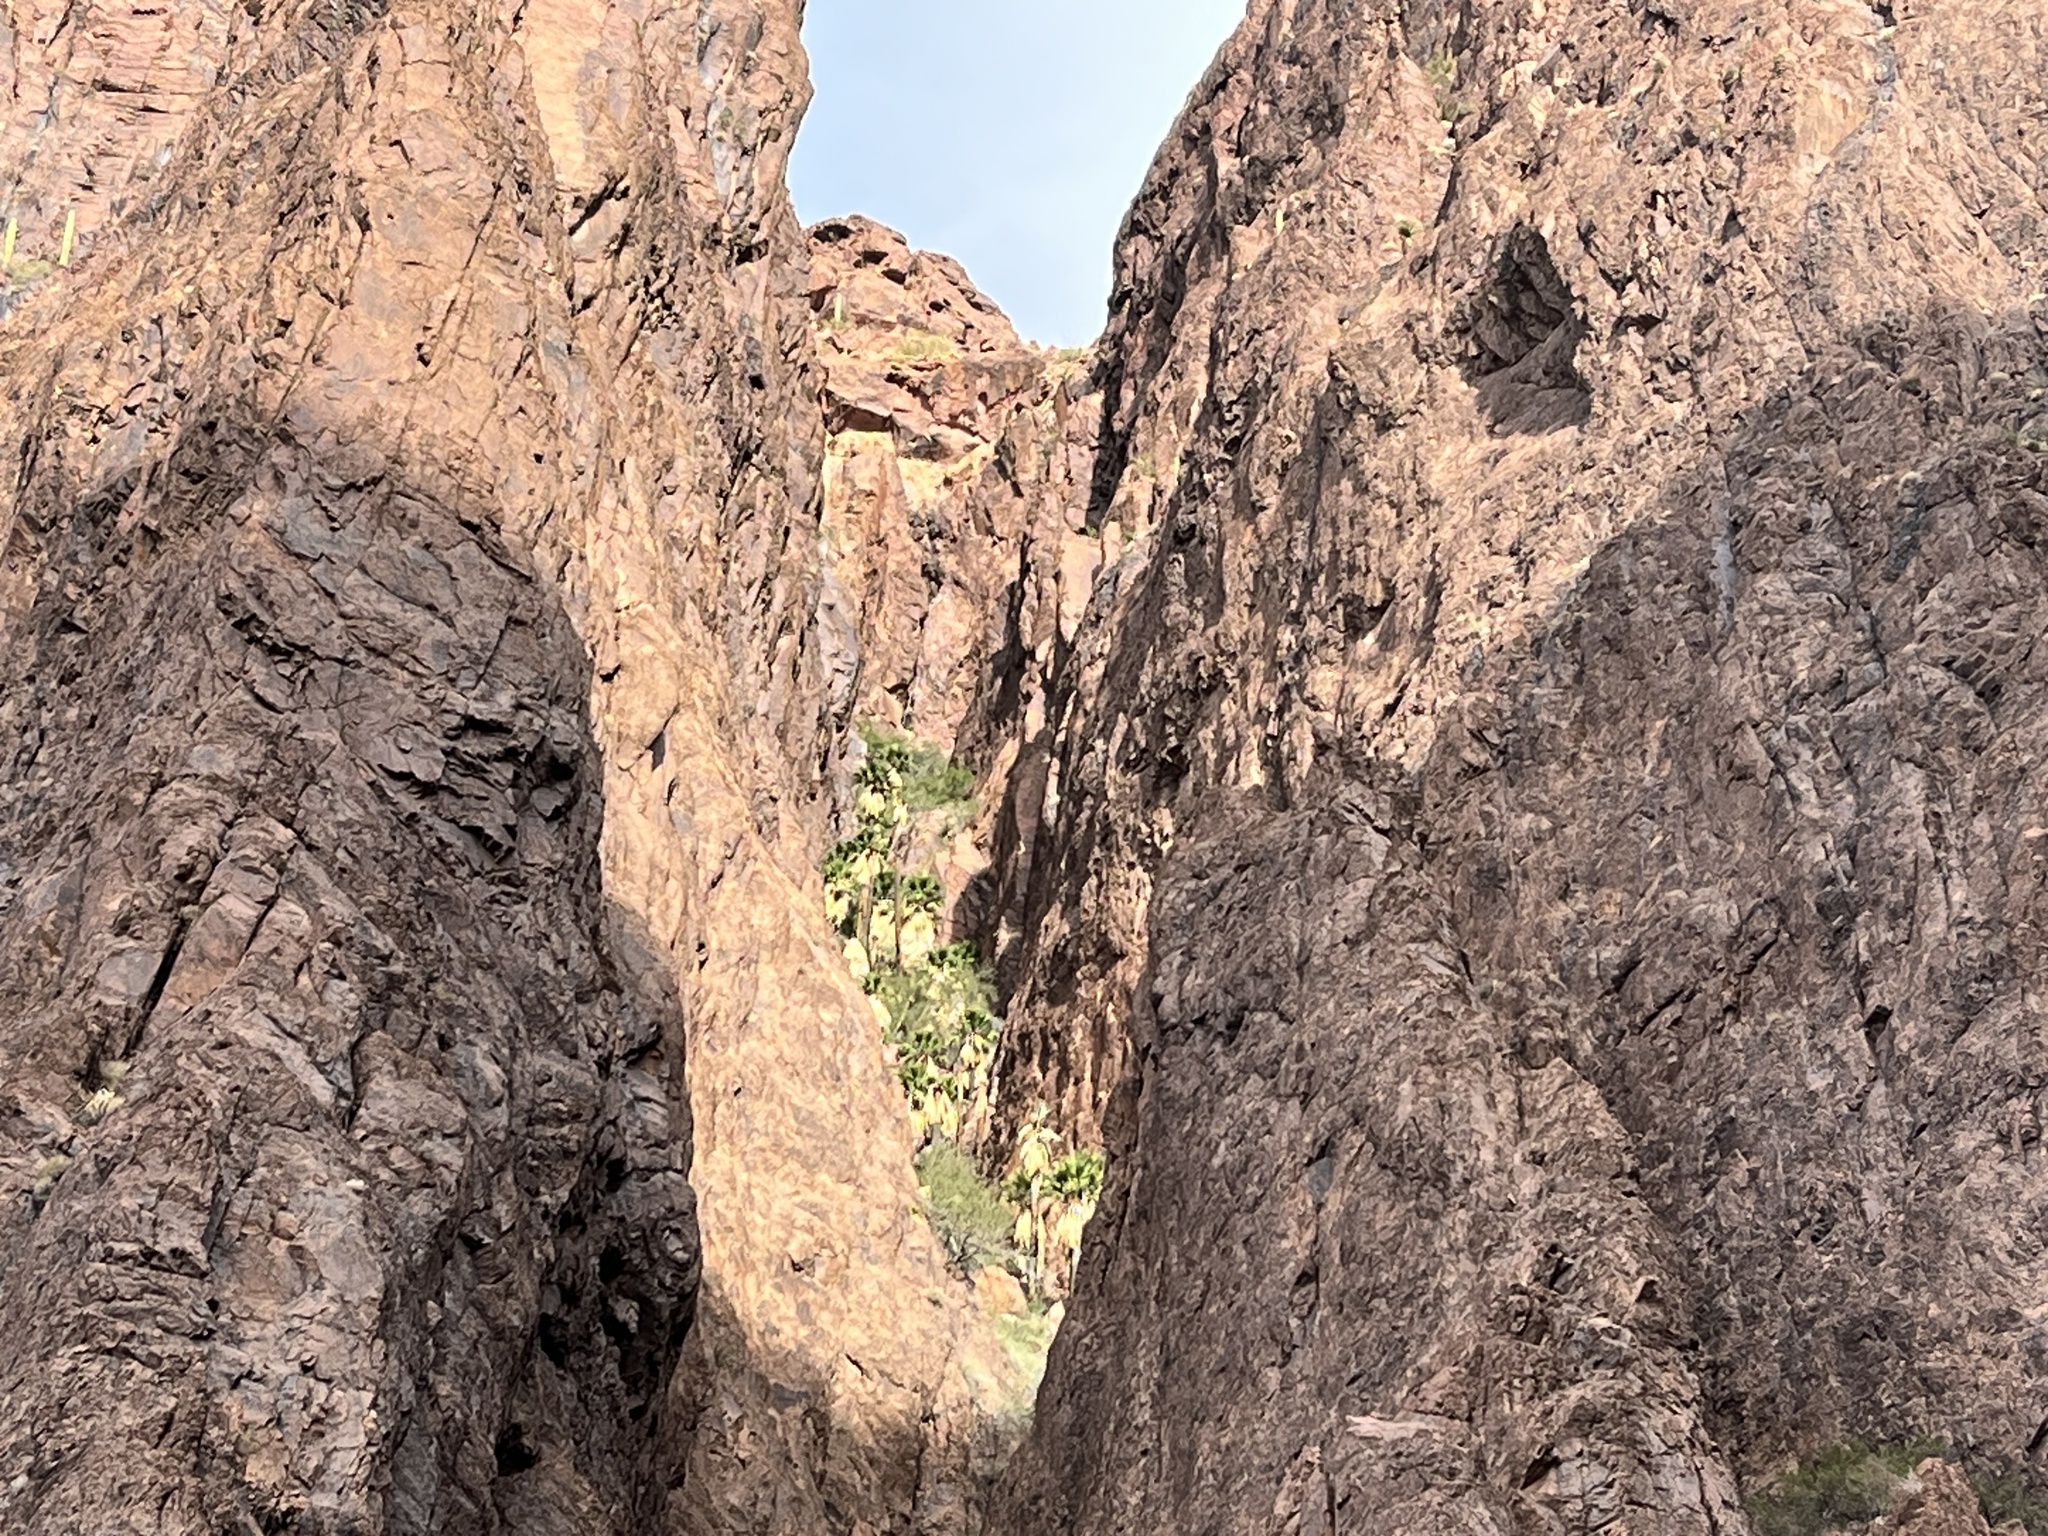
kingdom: Plantae
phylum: Tracheophyta
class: Liliopsida
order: Arecales
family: Arecaceae
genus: Washingtonia
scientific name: Washingtonia filifera
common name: California fan palm
